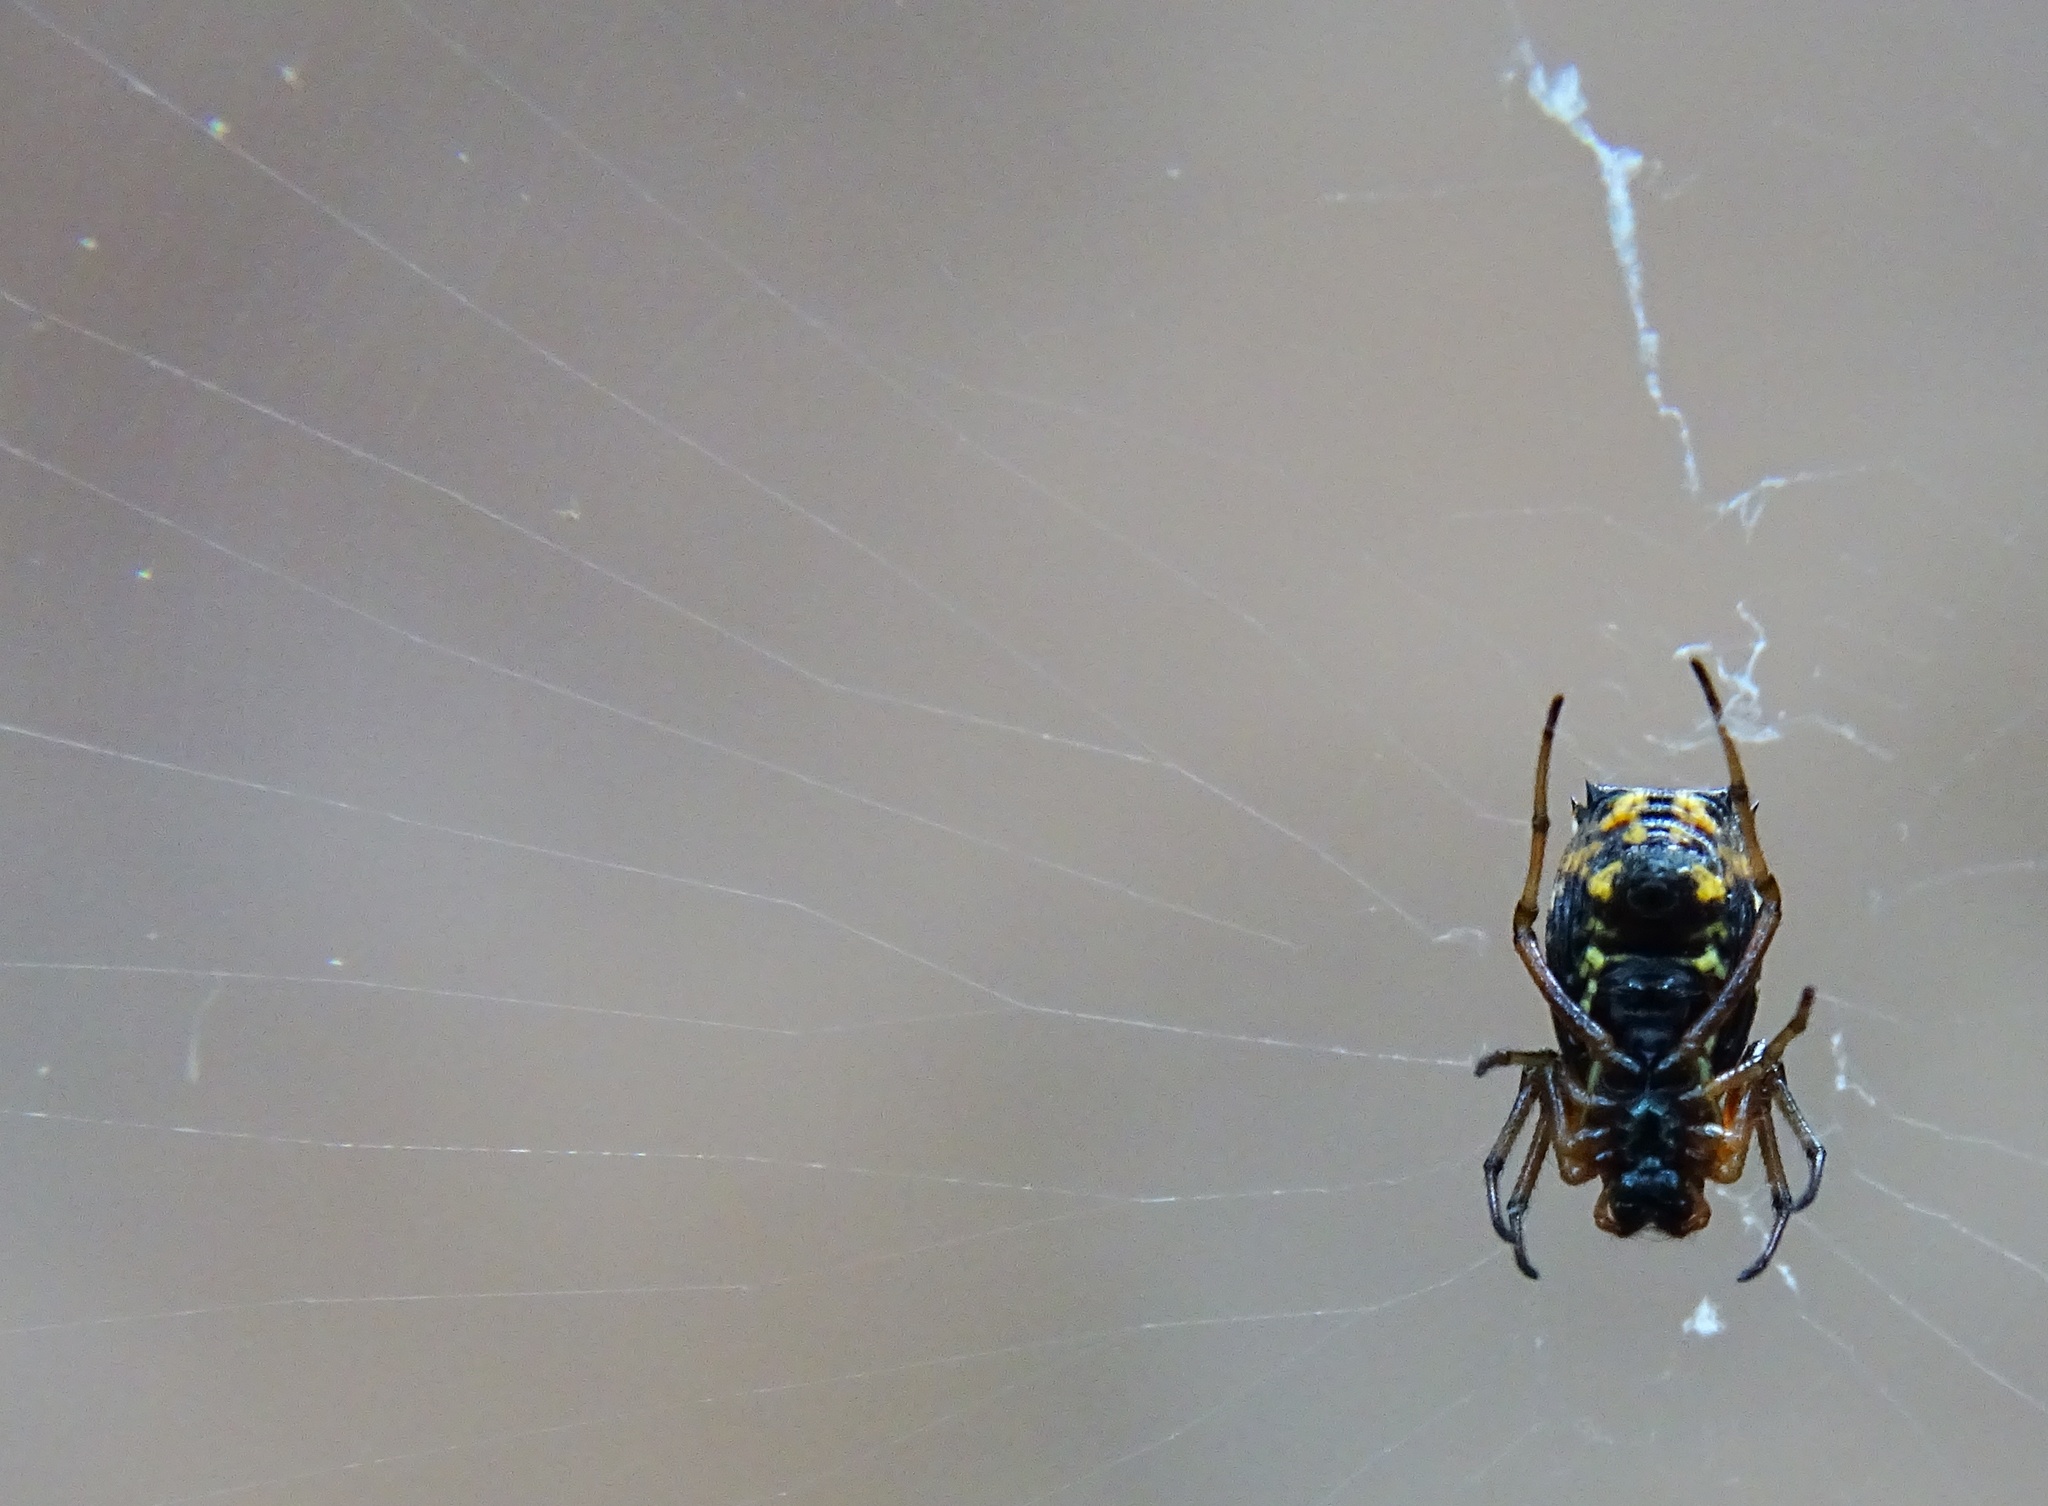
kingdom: Animalia
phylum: Arthropoda
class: Arachnida
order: Araneae
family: Araneidae
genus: Micrathena
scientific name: Micrathena mitrata
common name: Orb weavers
